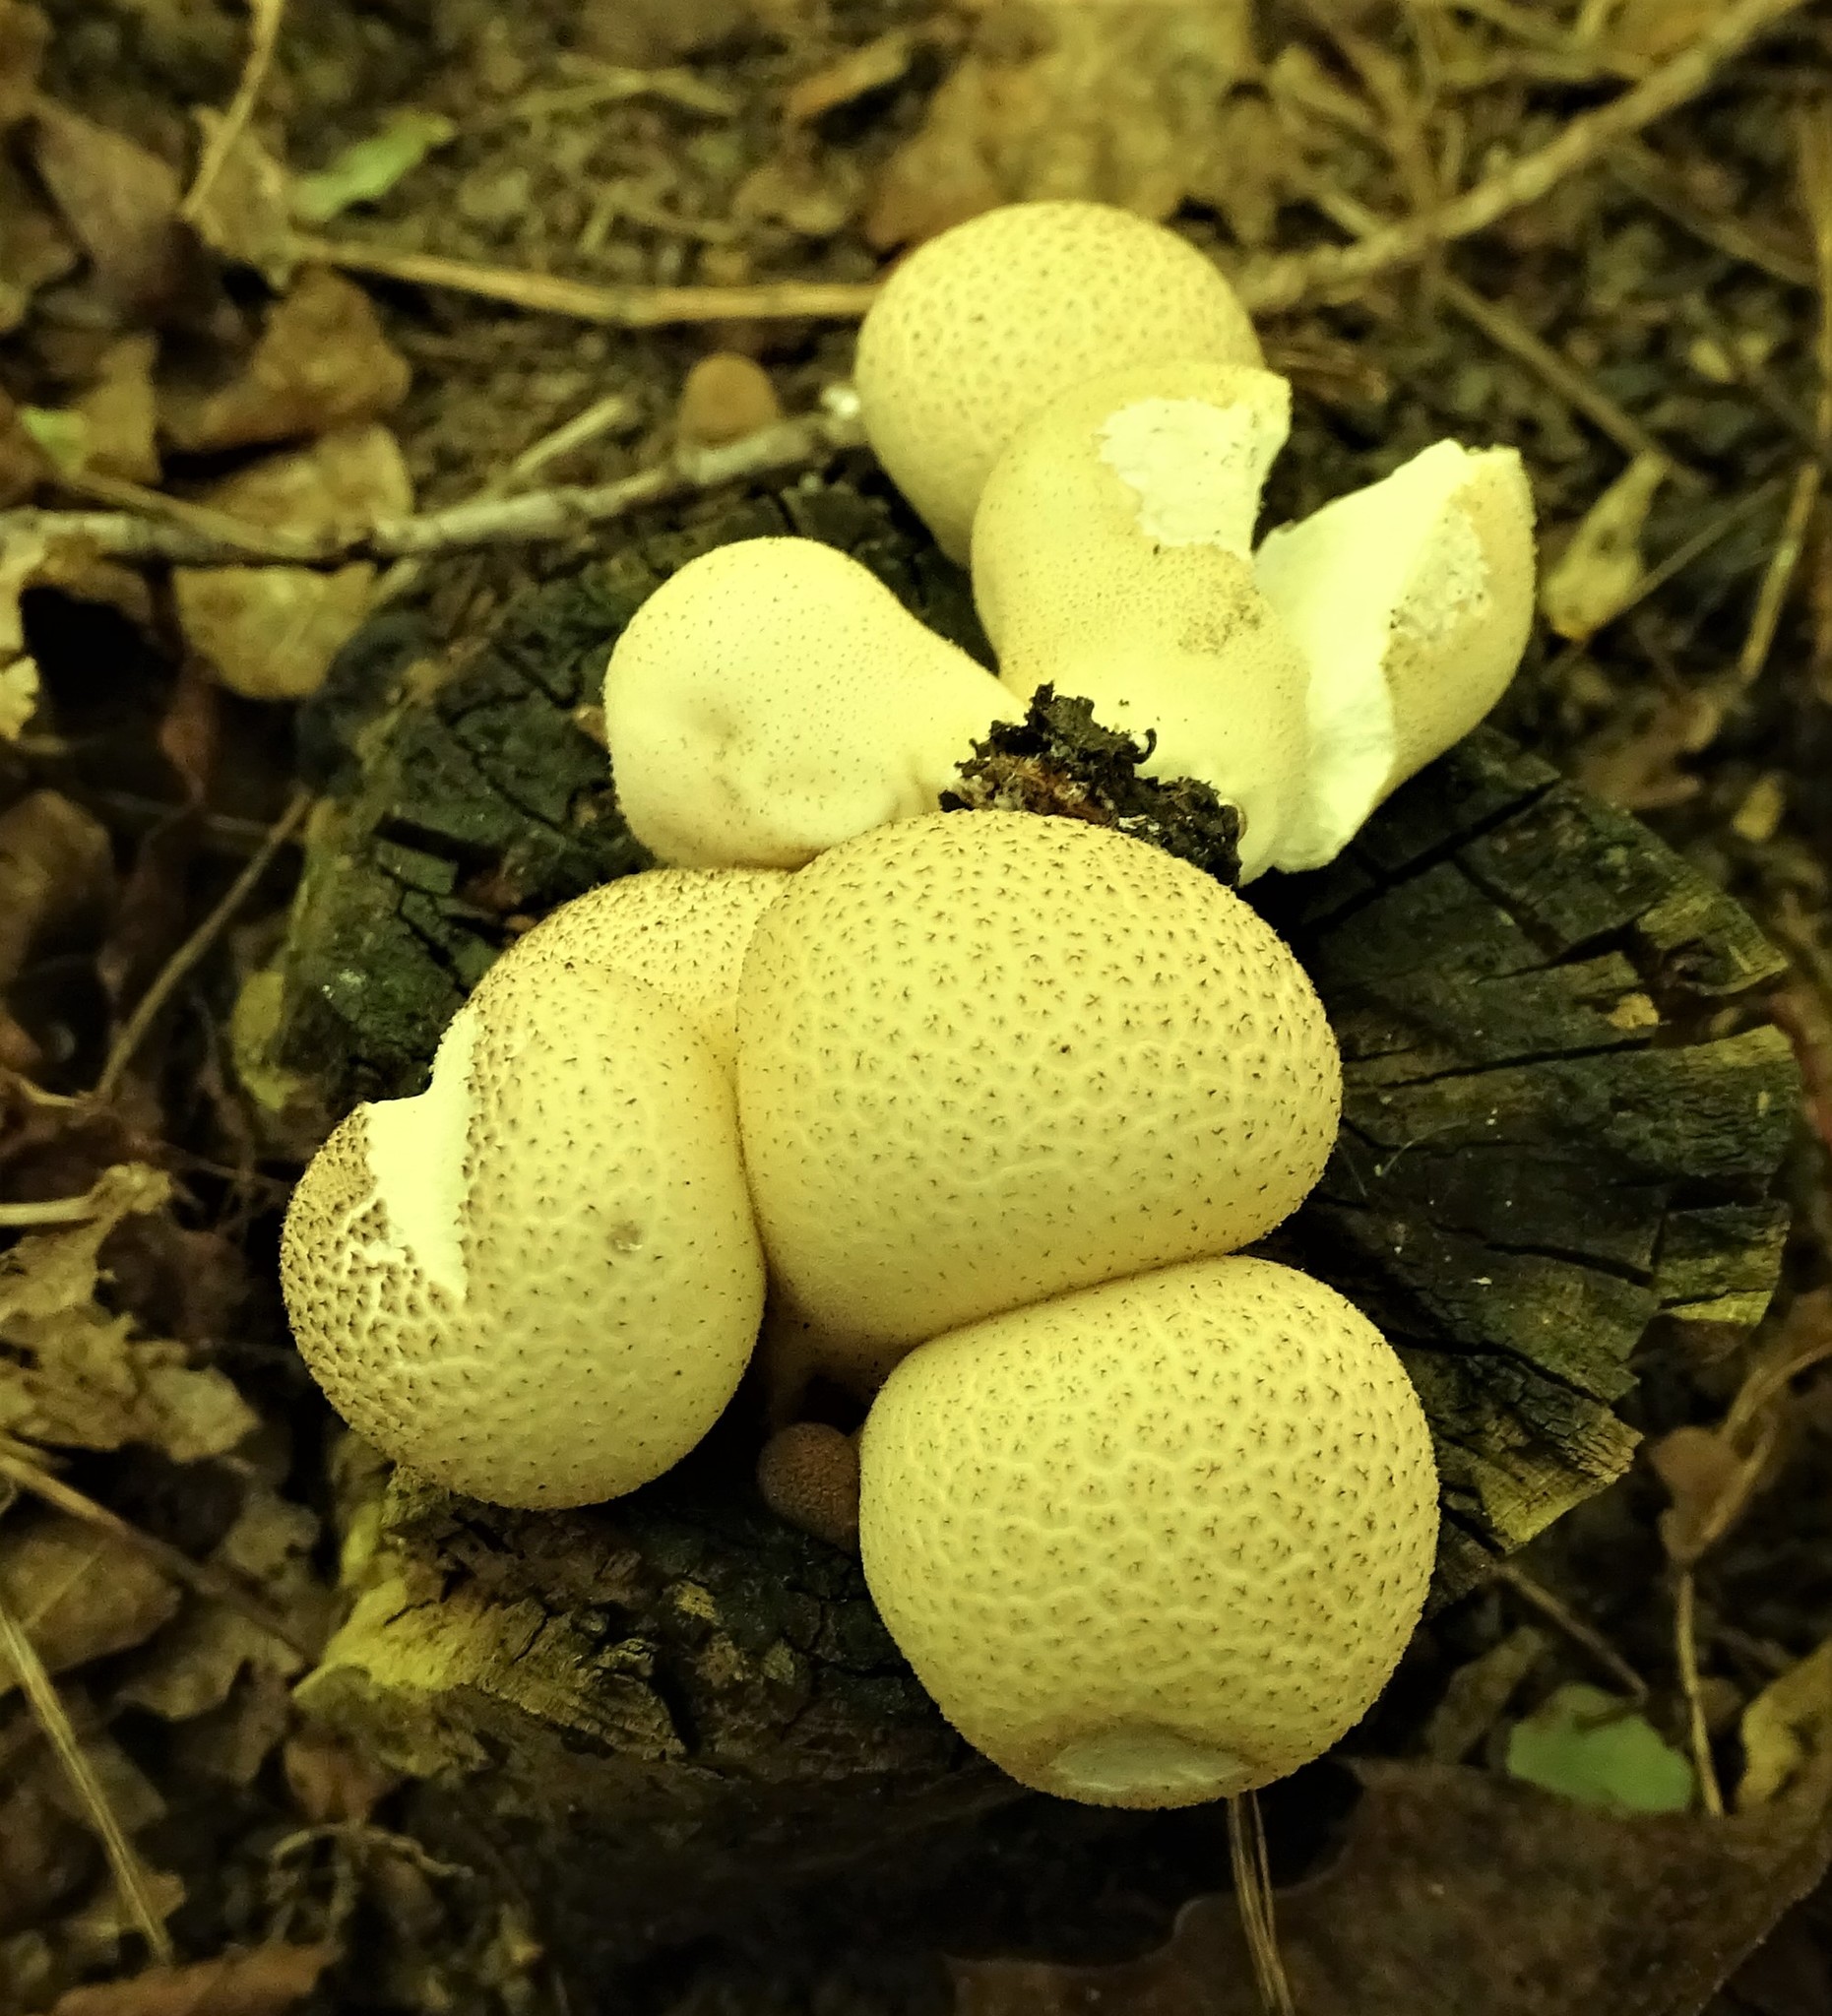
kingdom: Fungi
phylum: Basidiomycota
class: Agaricomycetes
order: Agaricales
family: Lycoperdaceae
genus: Apioperdon
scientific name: Apioperdon pyriforme
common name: Pear-shaped puffball
